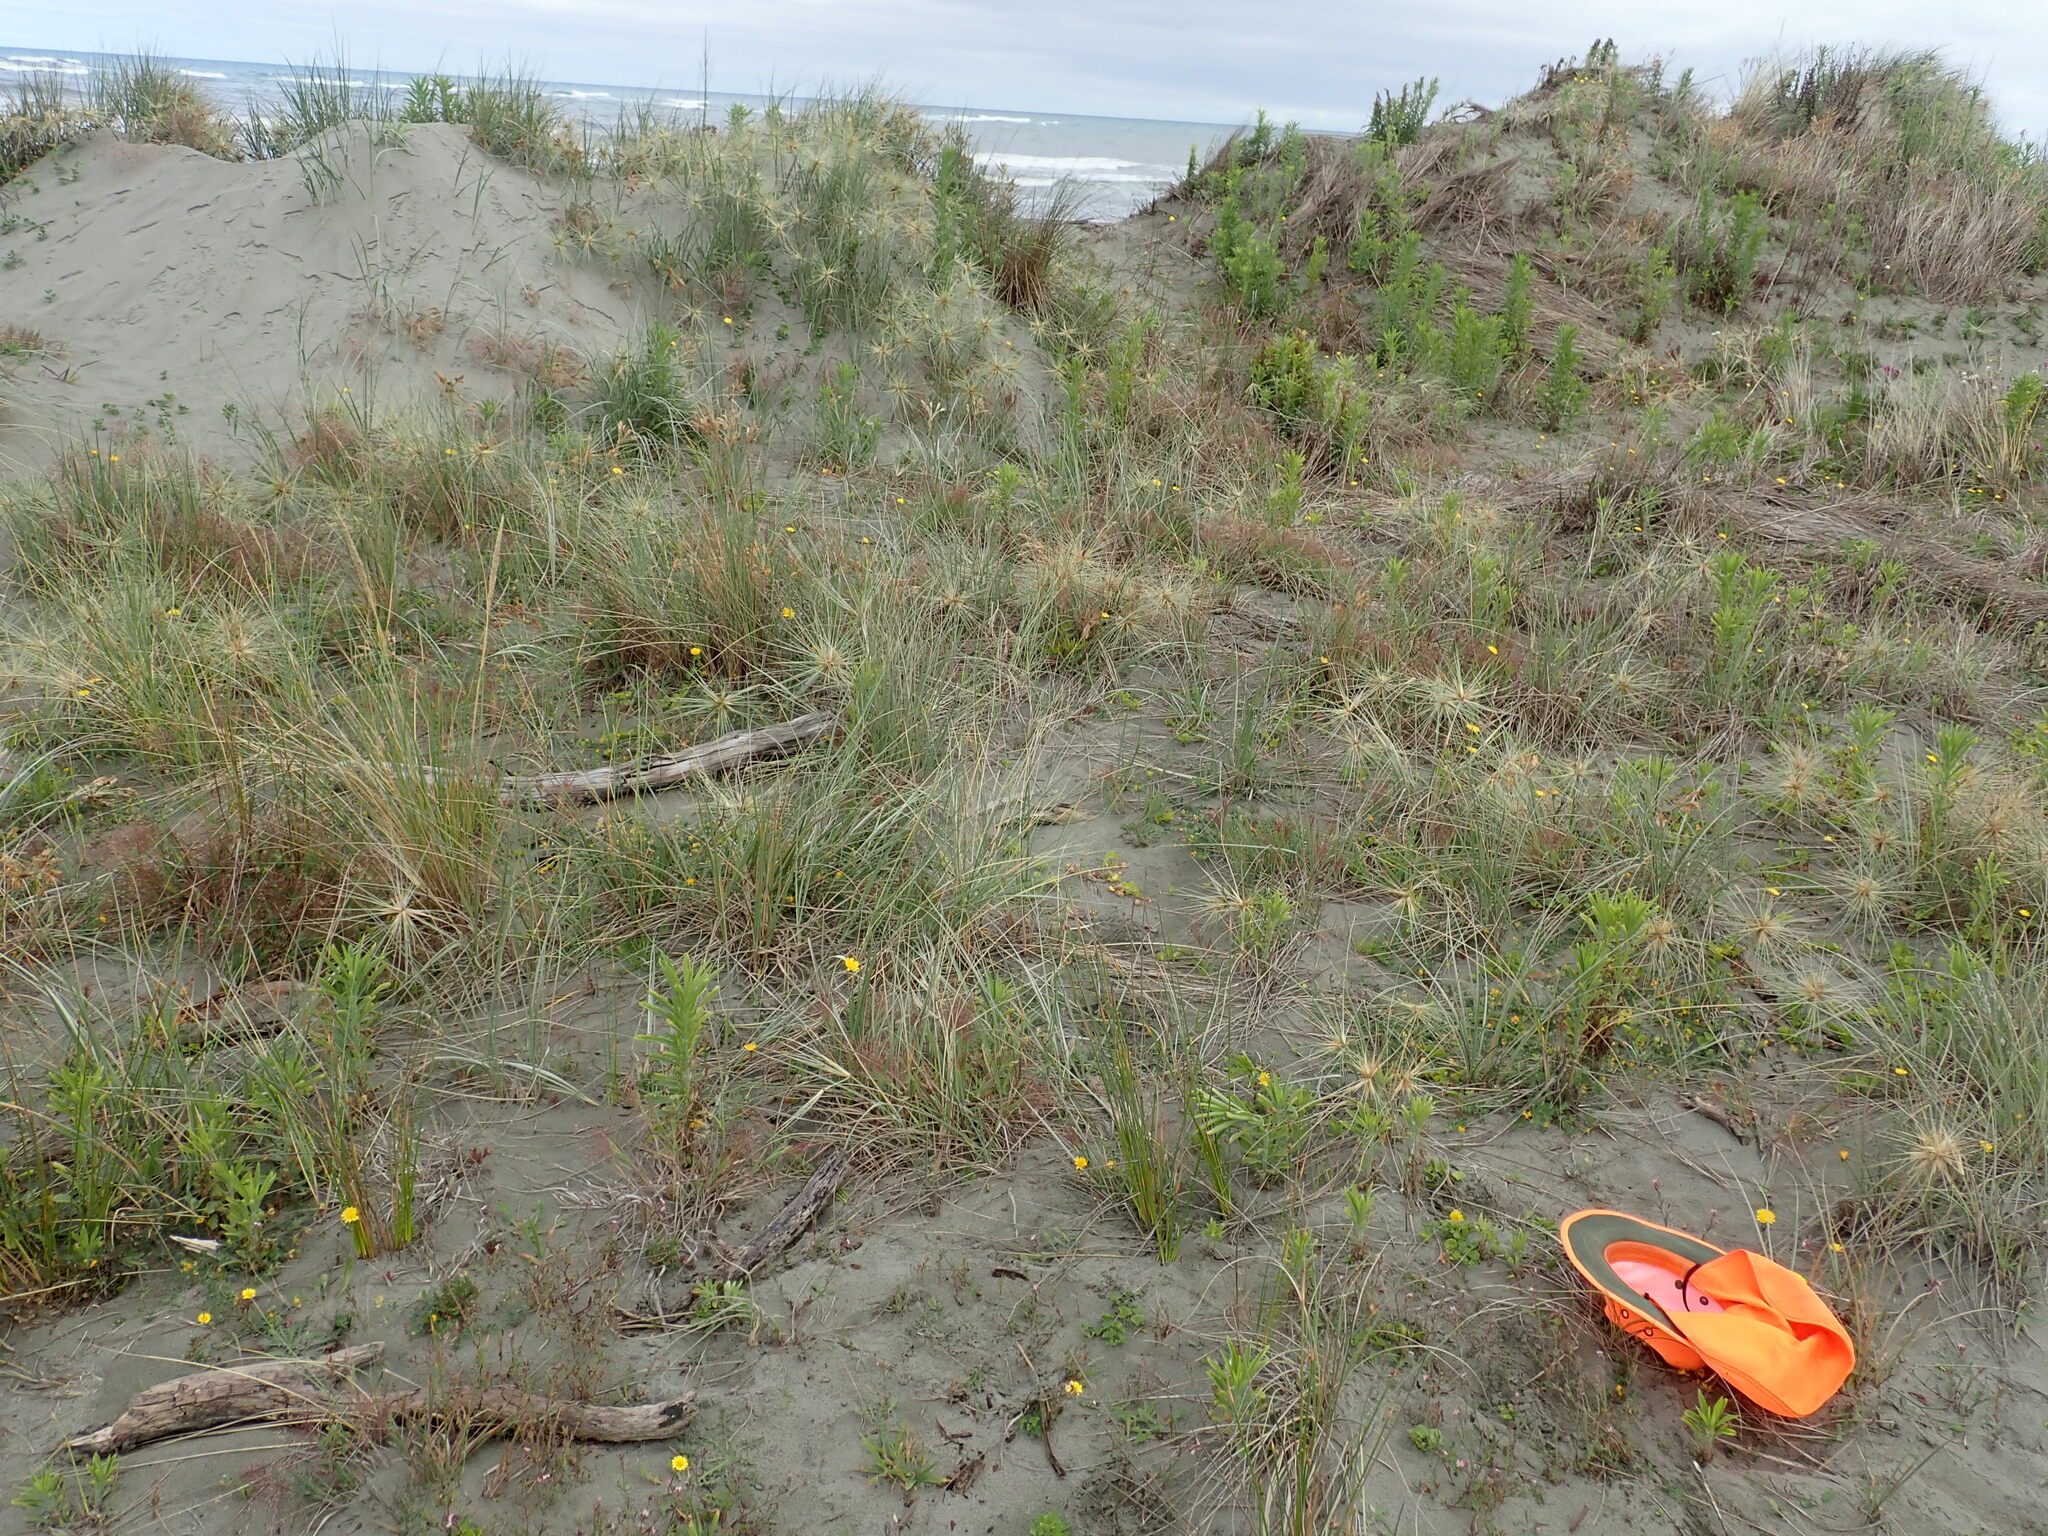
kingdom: Plantae
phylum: Tracheophyta
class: Magnoliopsida
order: Caryophyllales
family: Caryophyllaceae
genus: Silene
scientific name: Silene gallica
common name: Small-flowered catchfly
